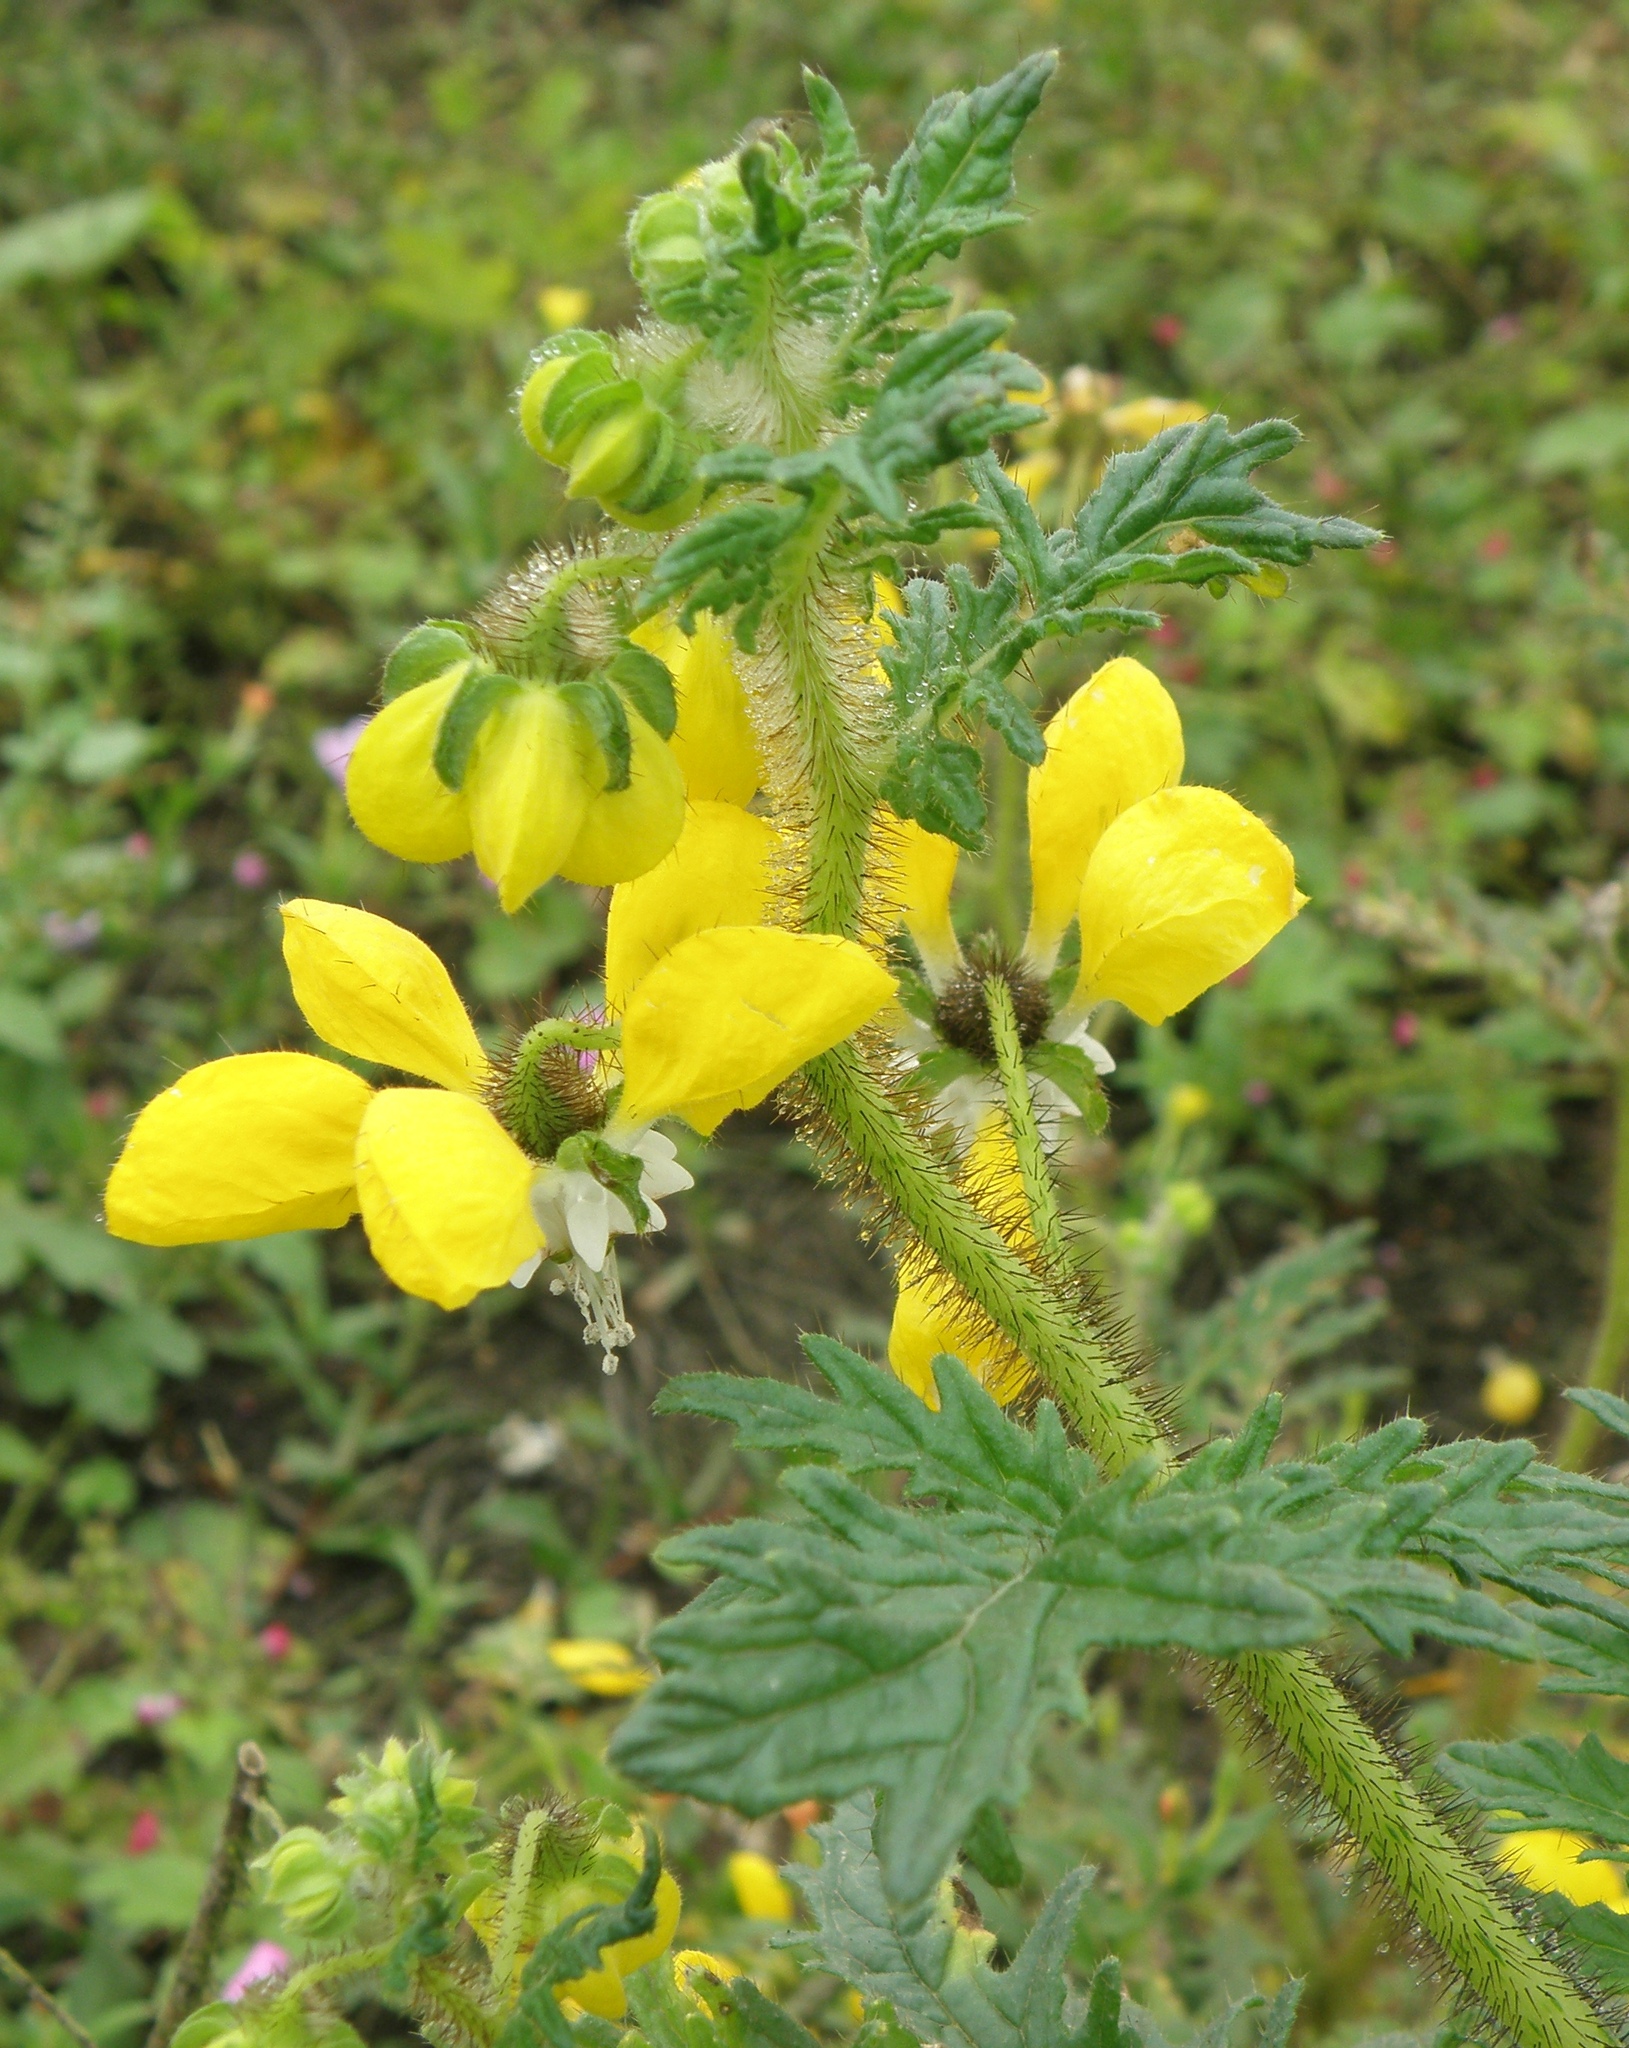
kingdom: Plantae
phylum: Tracheophyta
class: Magnoliopsida
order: Cornales
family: Loasaceae
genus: Nasa
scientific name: Nasa urens
